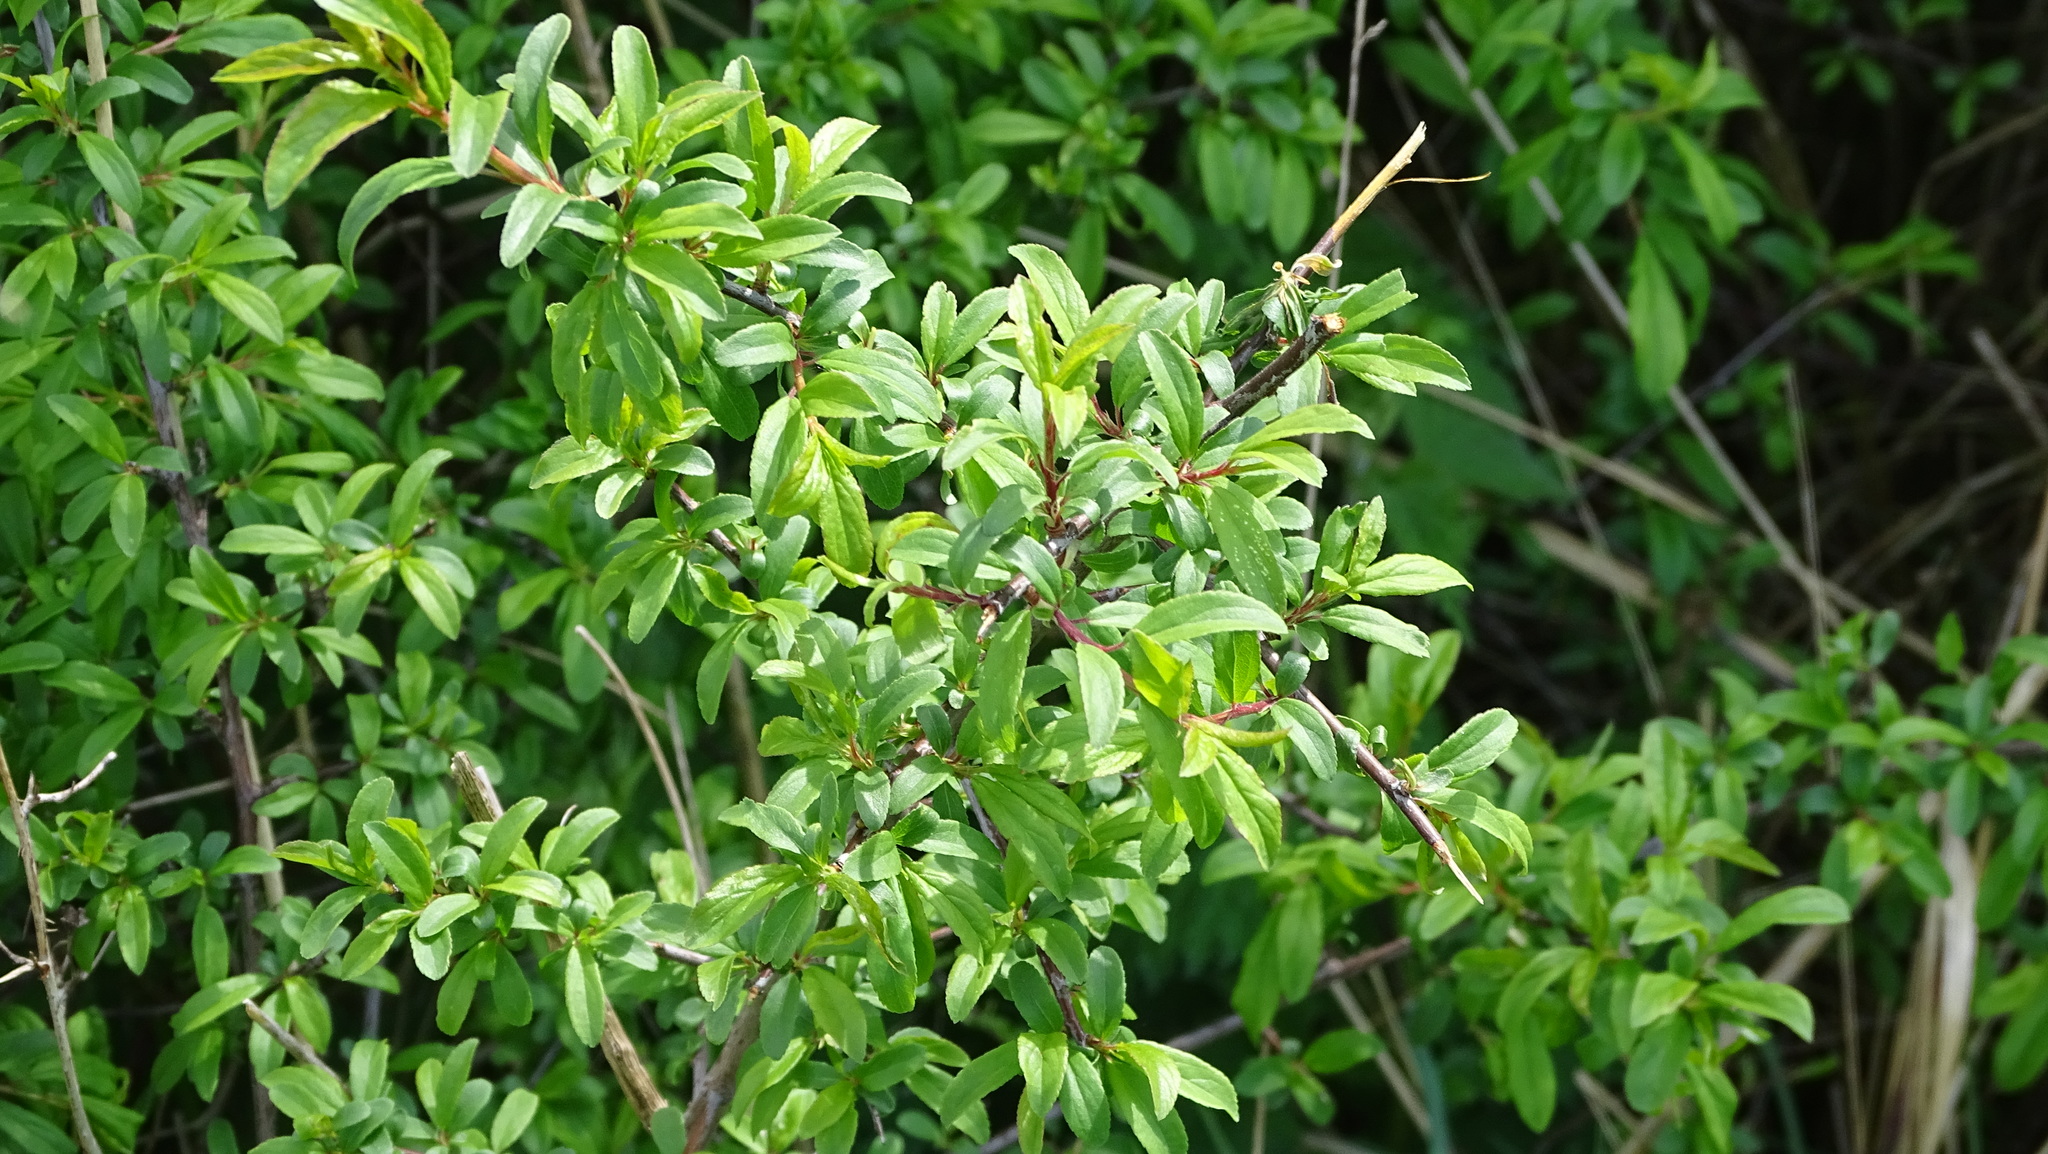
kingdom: Plantae
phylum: Tracheophyta
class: Magnoliopsida
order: Rosales
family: Rosaceae
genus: Prunus
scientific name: Prunus spinosa
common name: Blackthorn
